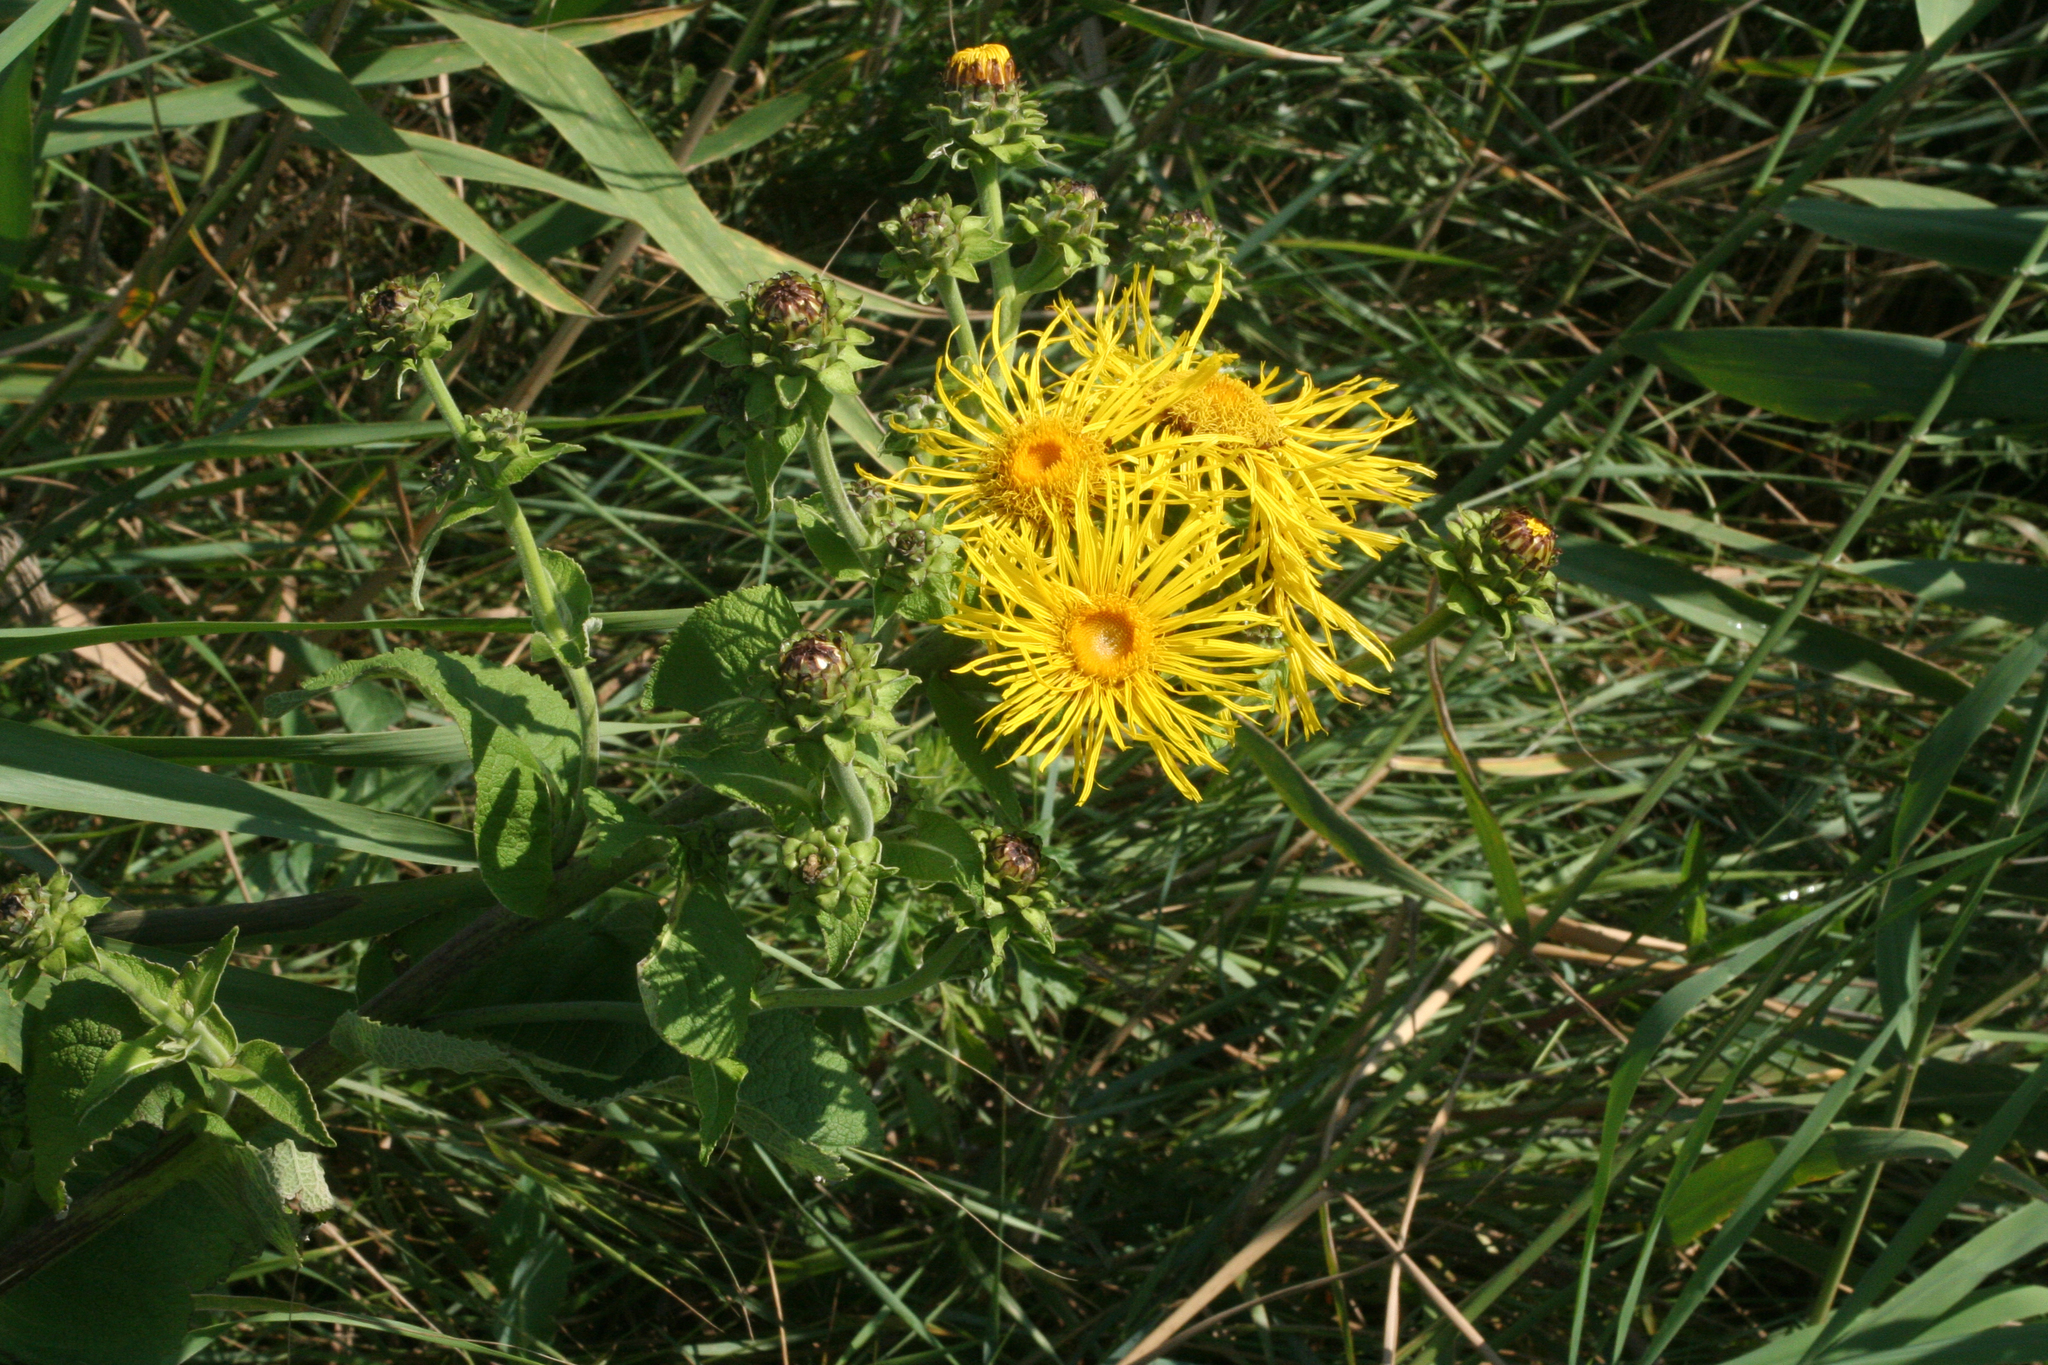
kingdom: Plantae
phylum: Tracheophyta
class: Magnoliopsida
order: Asterales
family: Asteraceae
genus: Inula
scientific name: Inula helenium
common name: Elecampane
